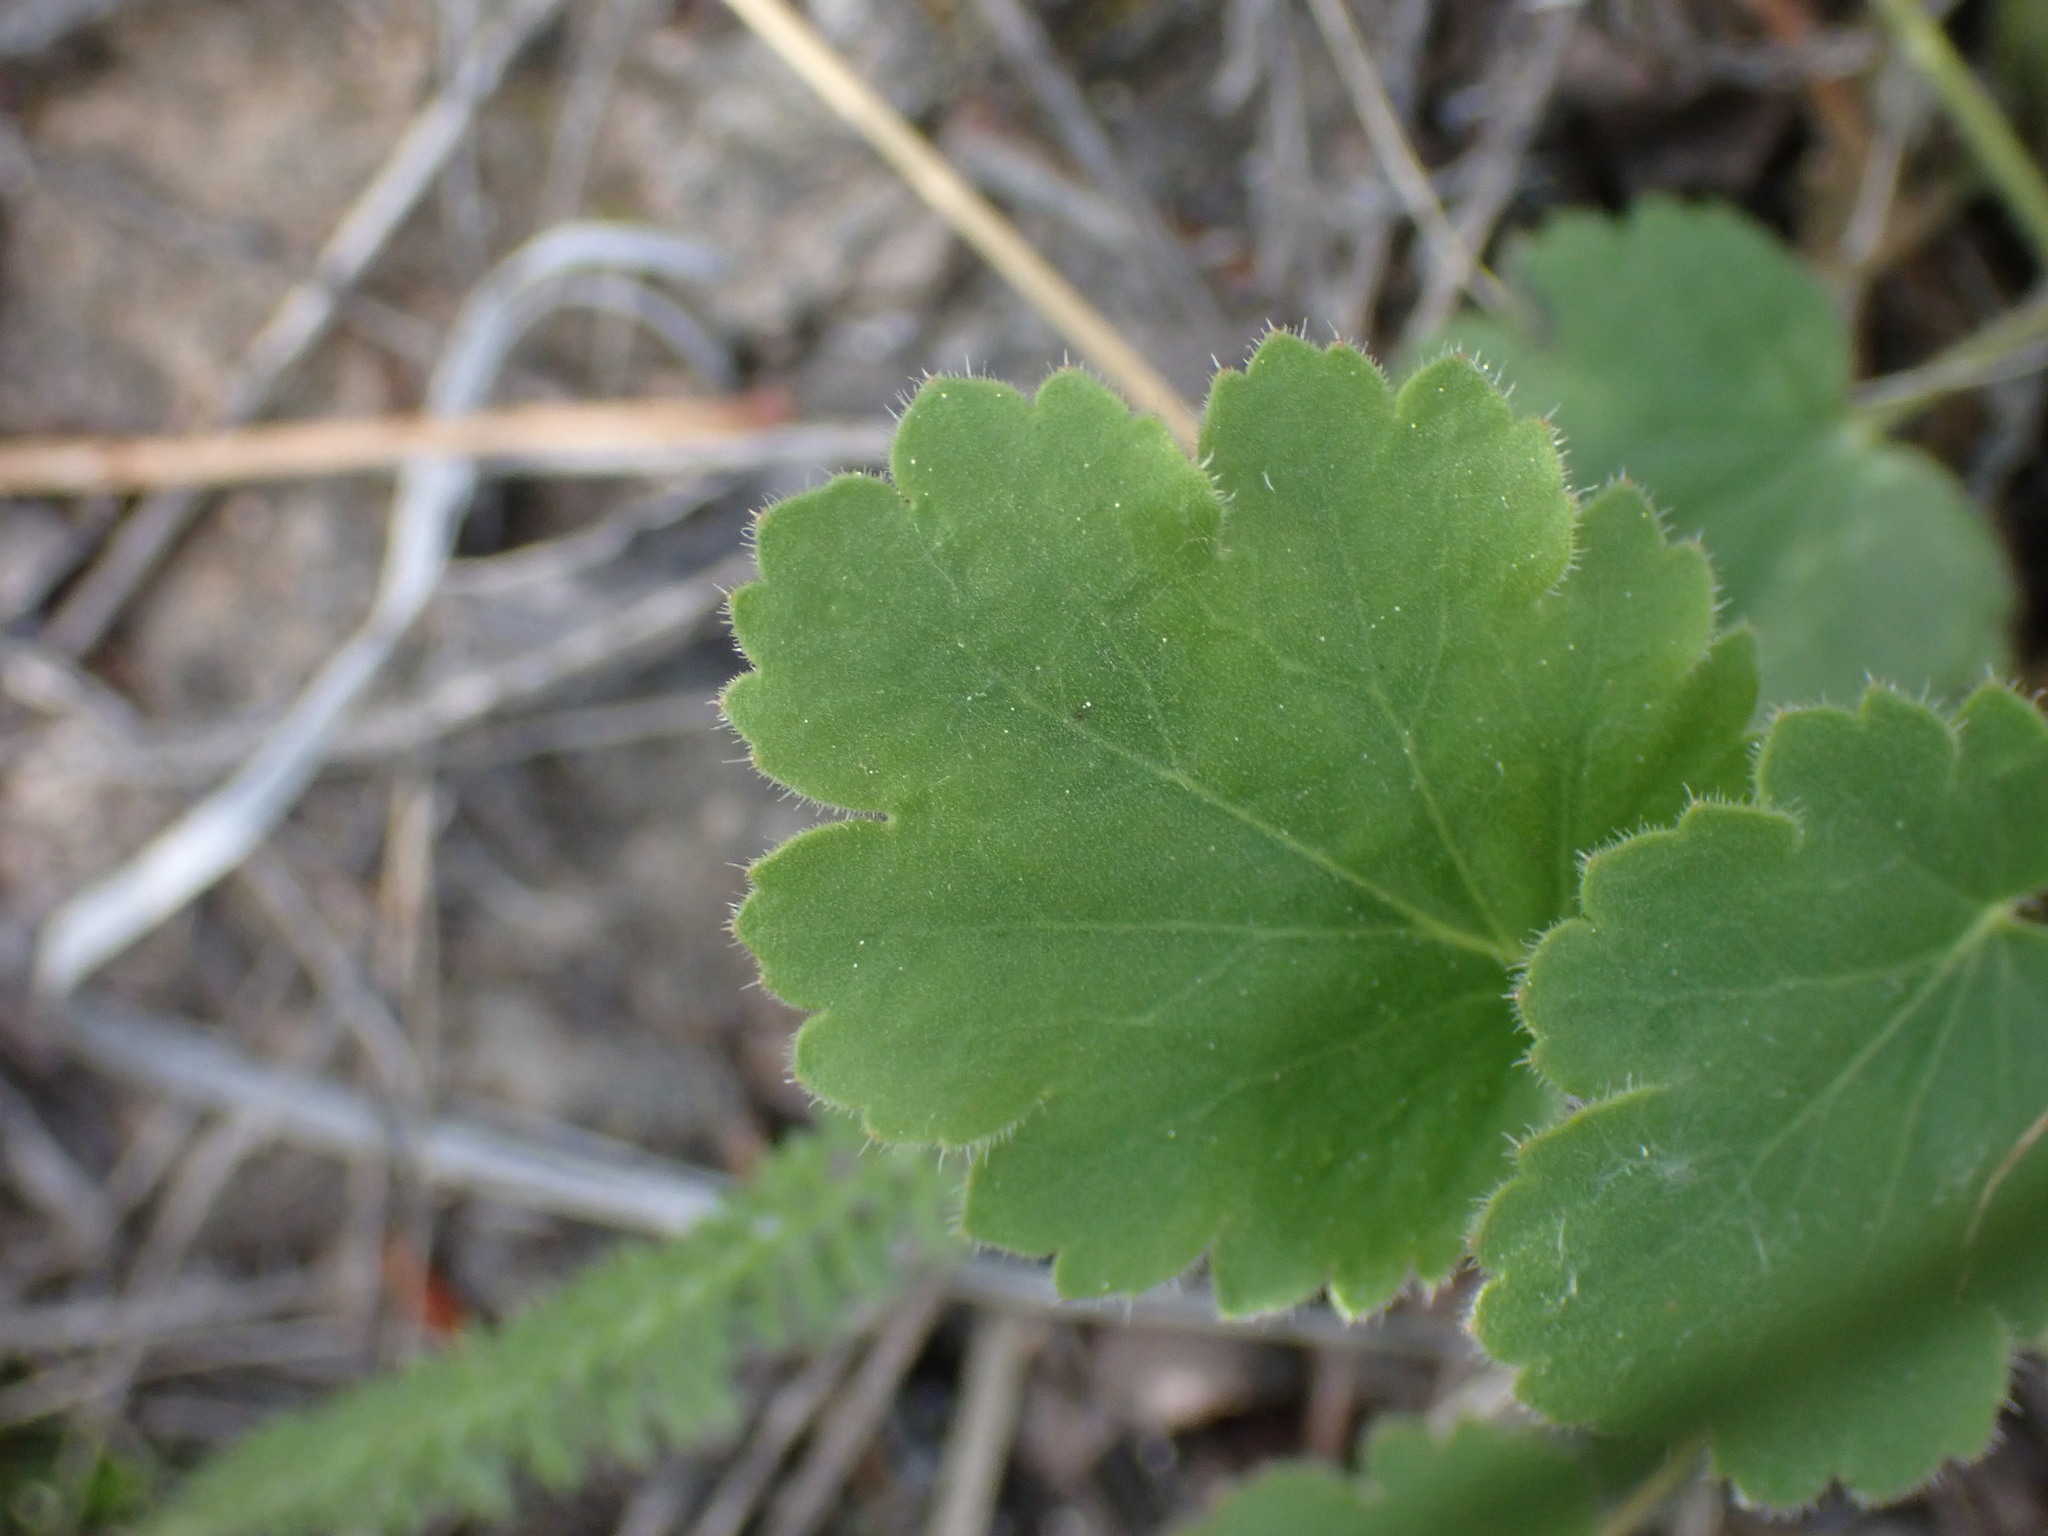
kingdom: Plantae
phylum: Tracheophyta
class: Magnoliopsida
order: Saxifragales
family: Saxifragaceae
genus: Heuchera
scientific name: Heuchera cylindrica
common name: Mat alumroot
